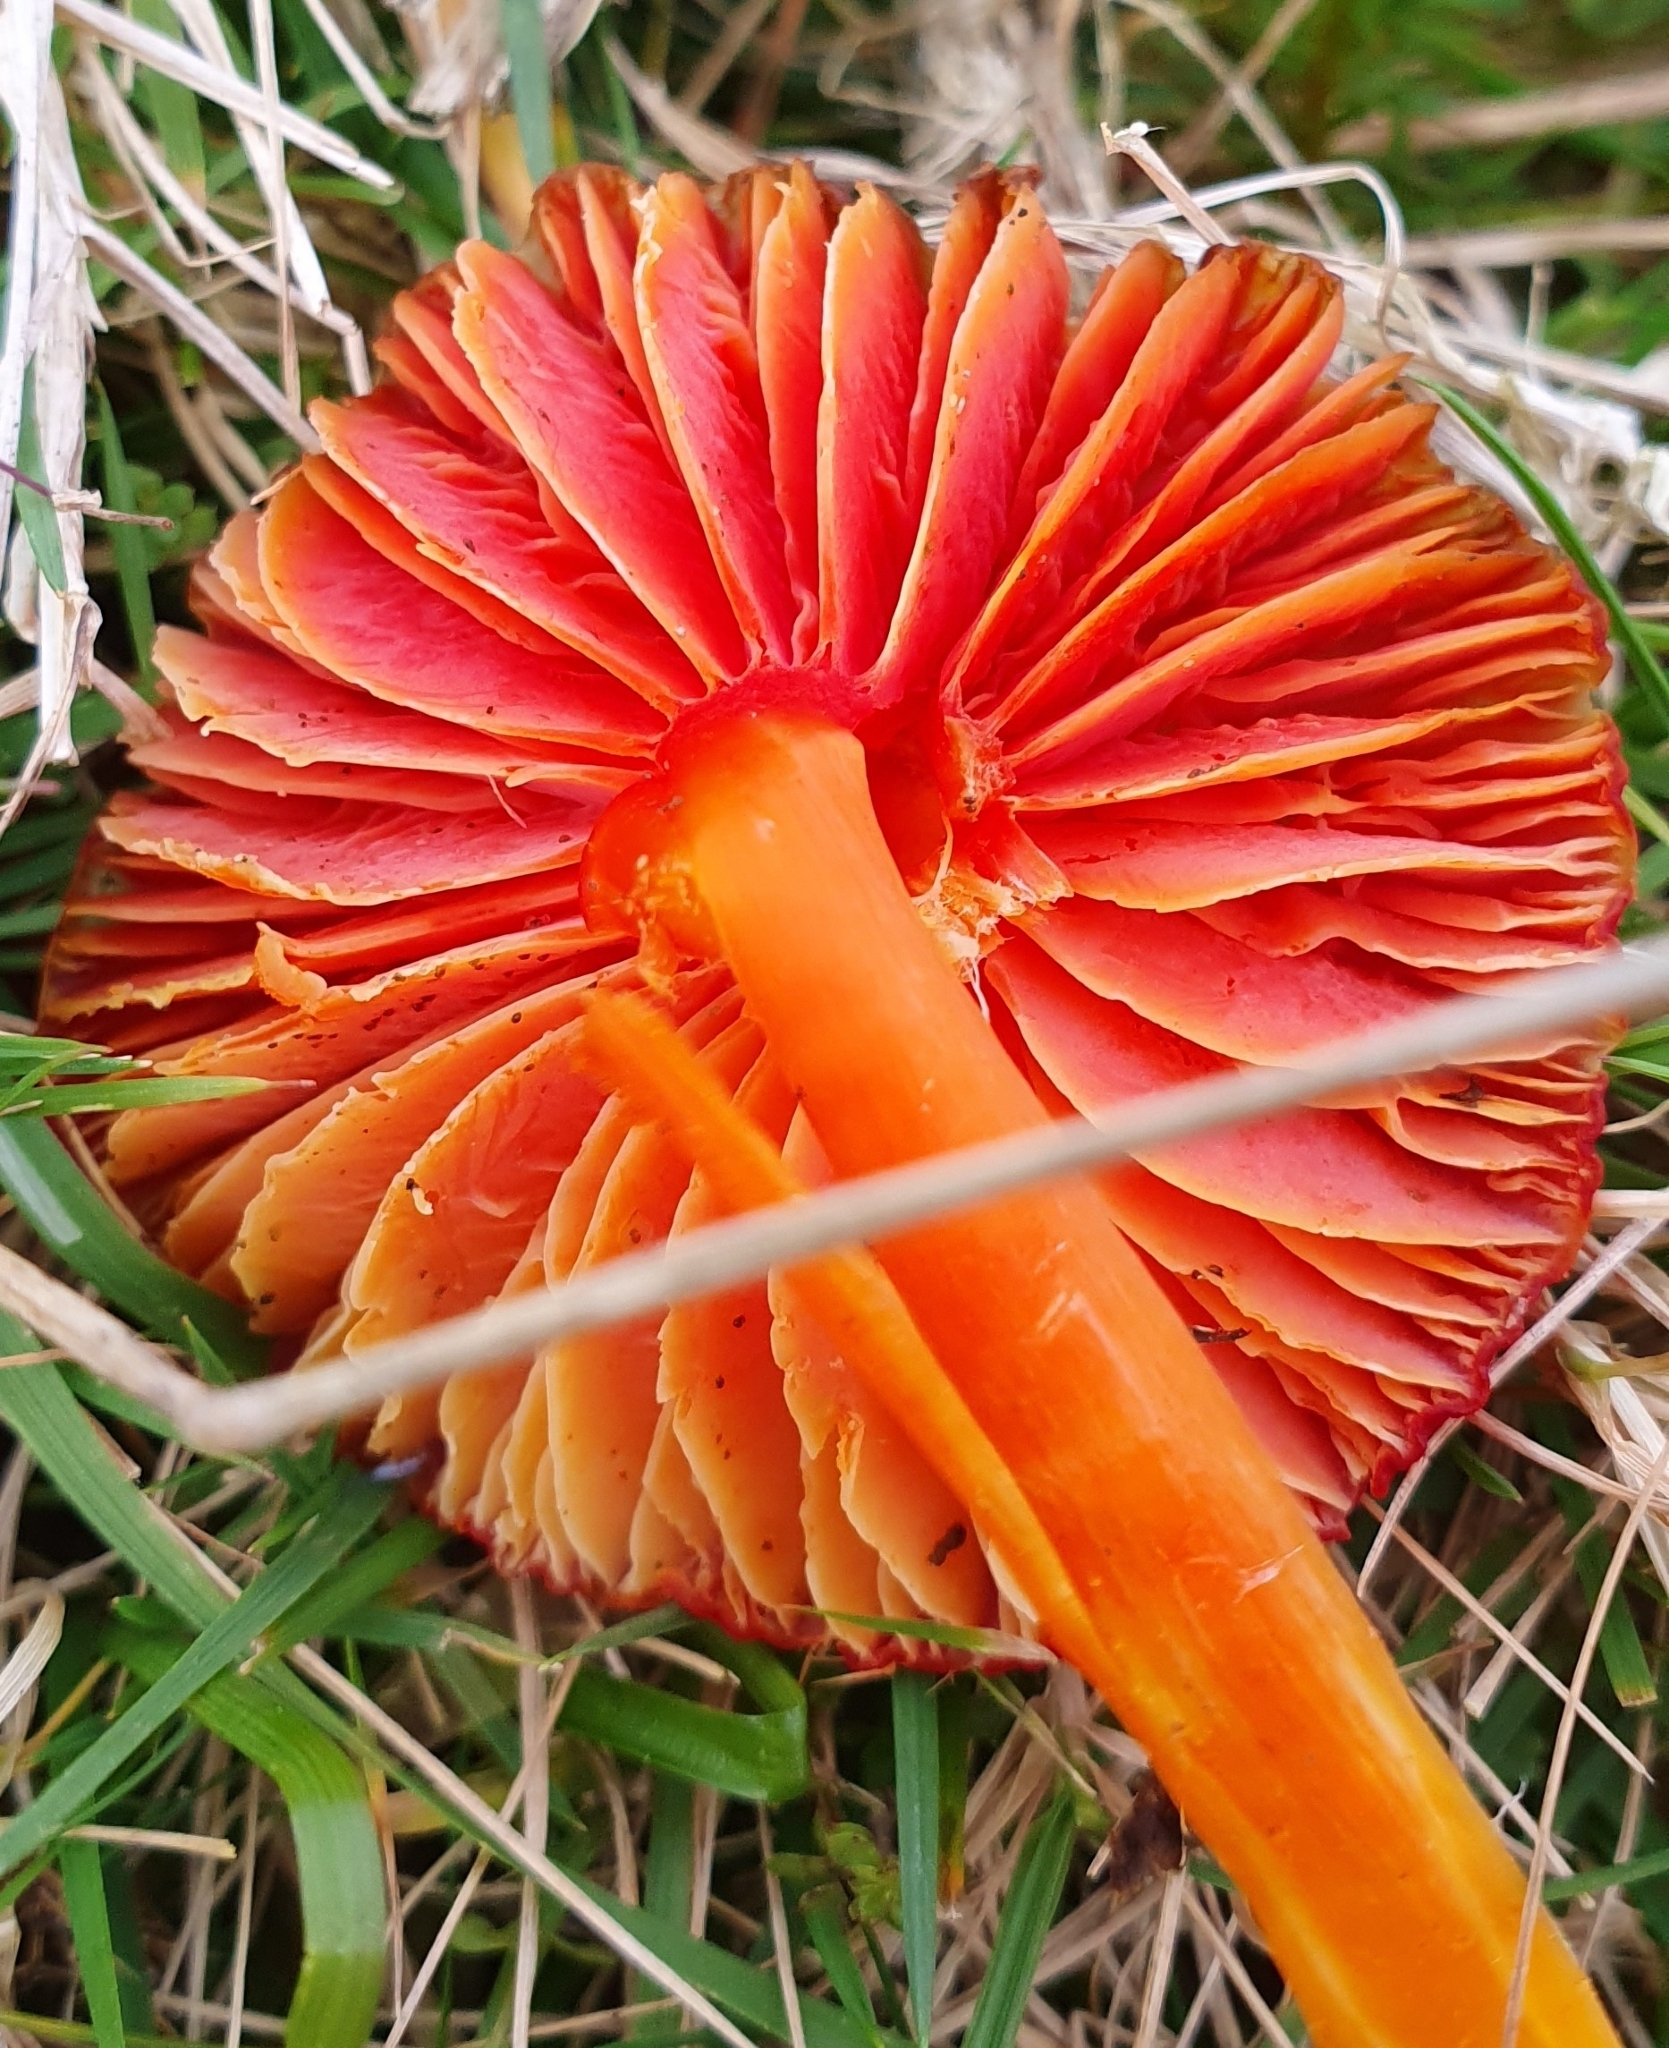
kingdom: Fungi
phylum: Basidiomycota
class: Agaricomycetes
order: Agaricales
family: Hygrophoraceae
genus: Hygrocybe
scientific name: Hygrocybe coccinea
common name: Scarlet hood
